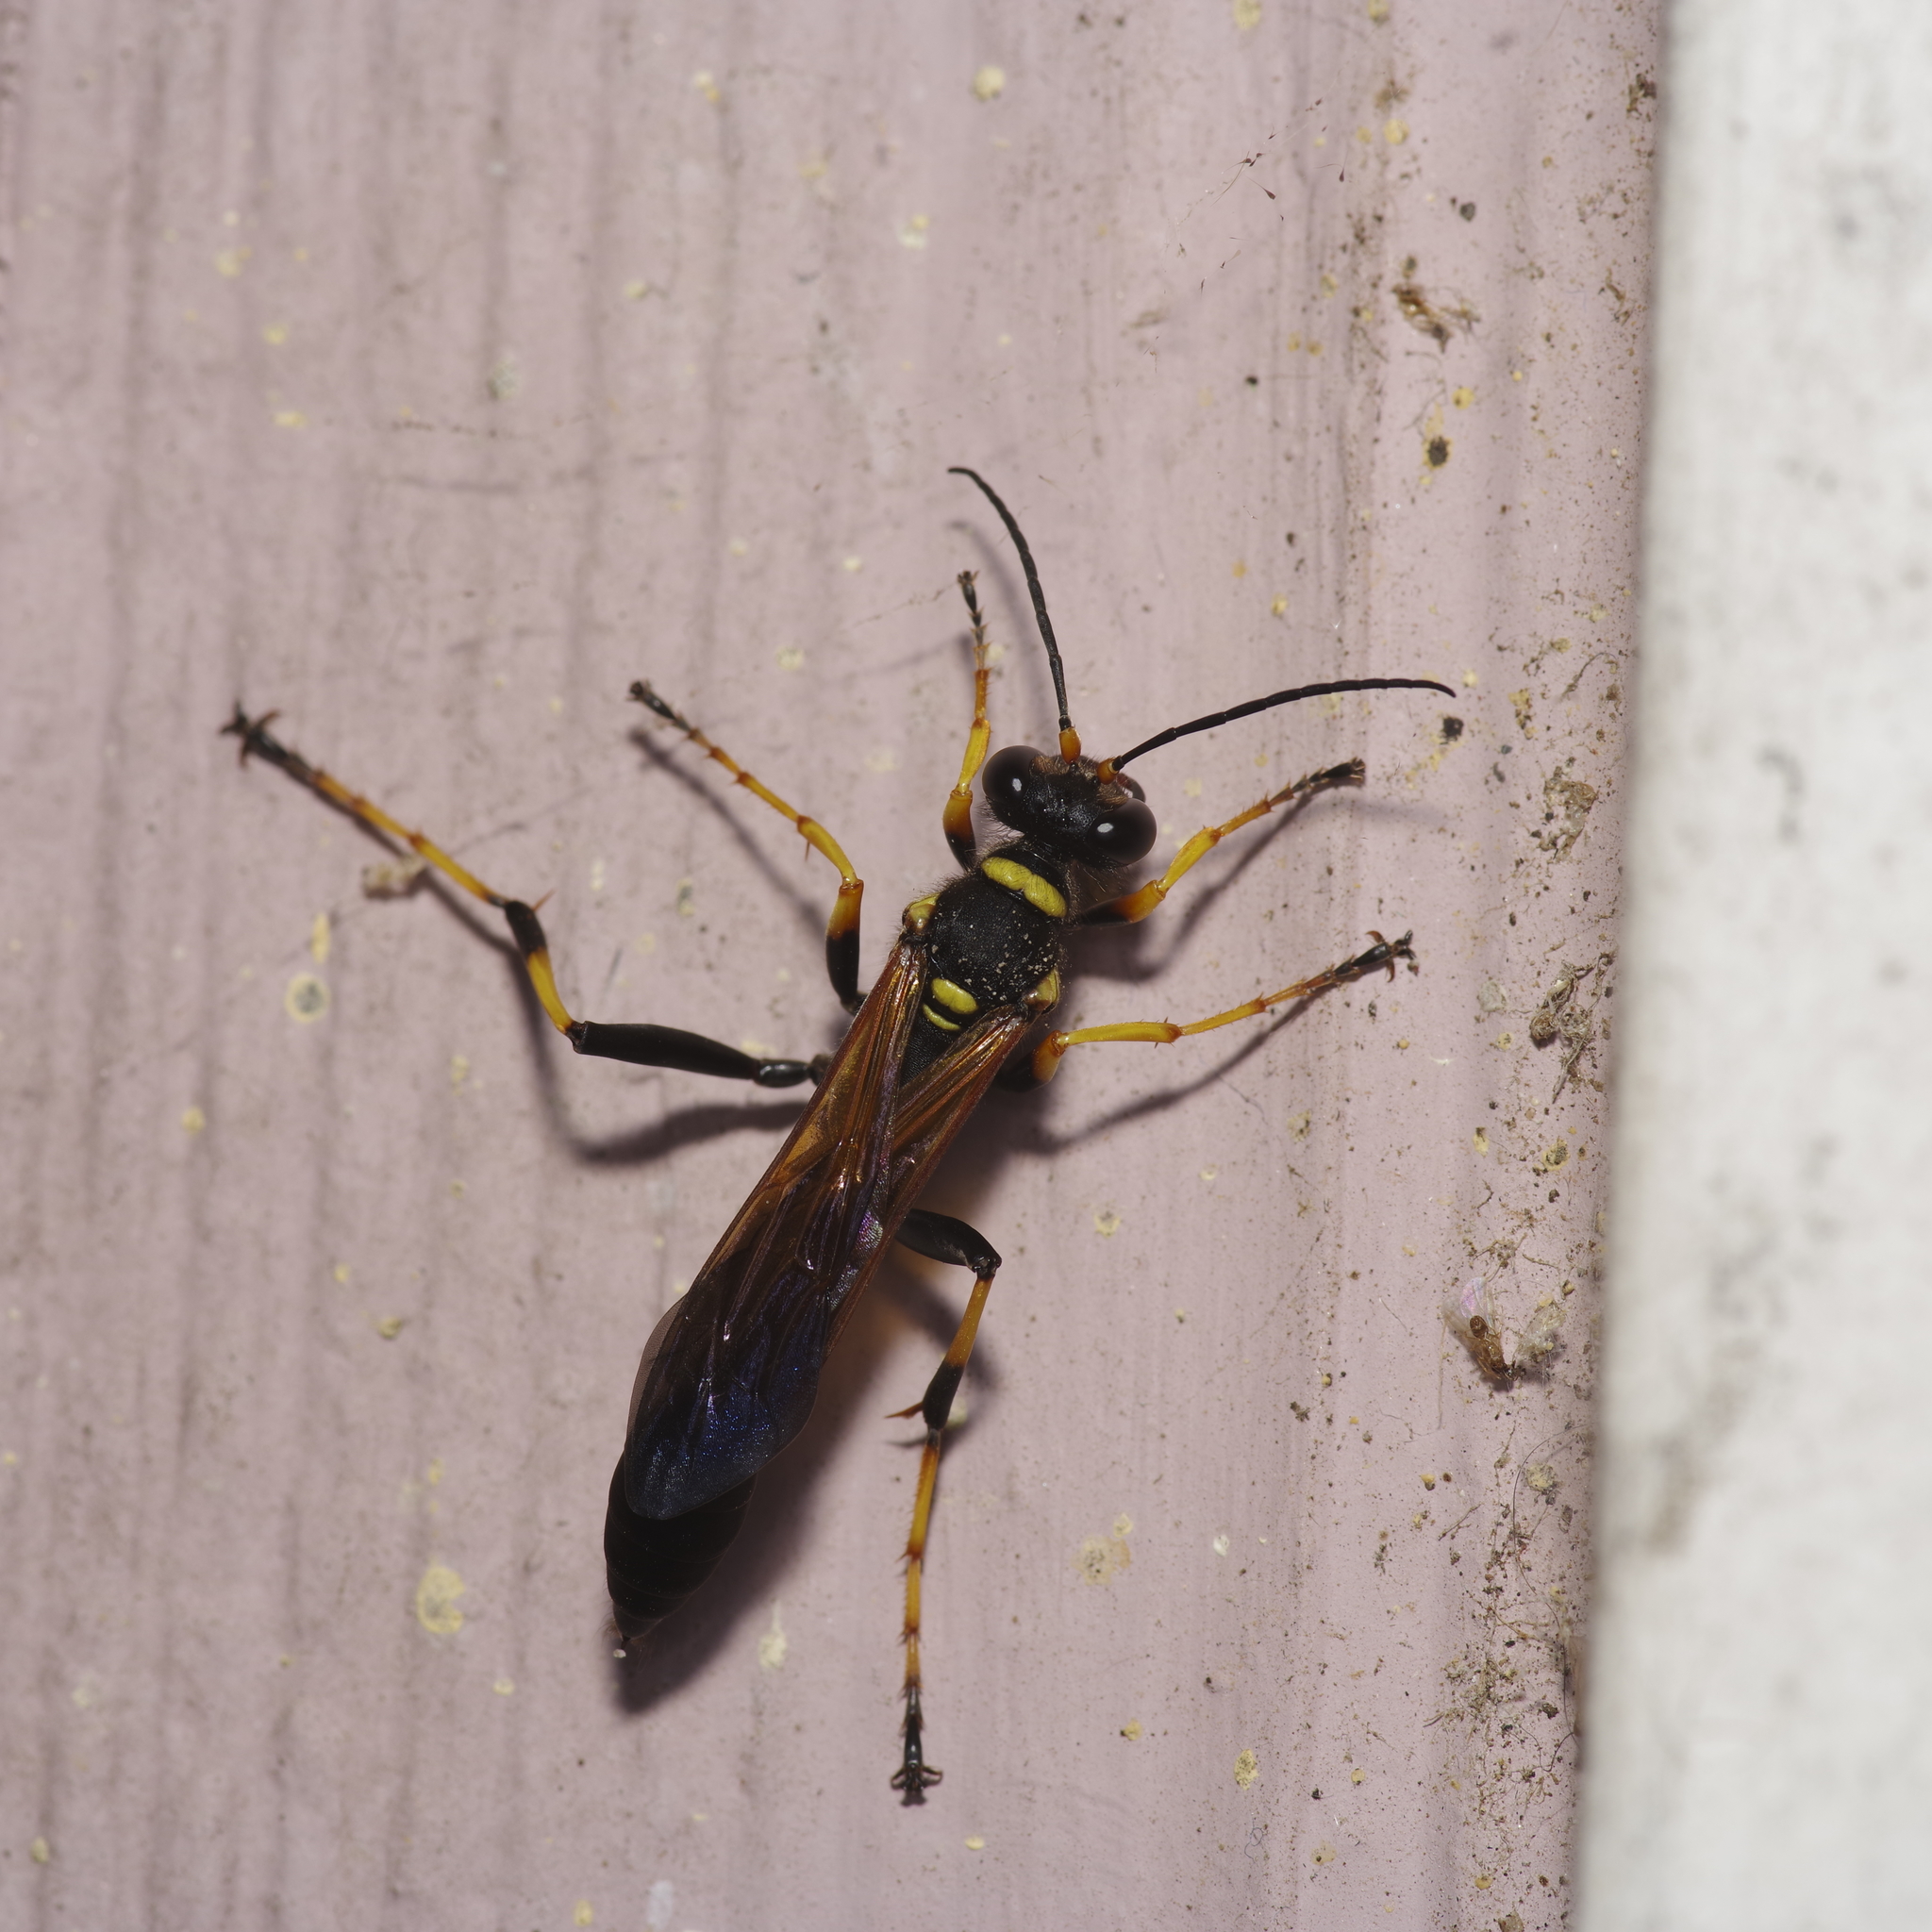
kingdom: Animalia
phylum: Arthropoda
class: Insecta
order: Hymenoptera
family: Sphecidae
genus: Sceliphron
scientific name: Sceliphron caementarium
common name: Mud dauber
